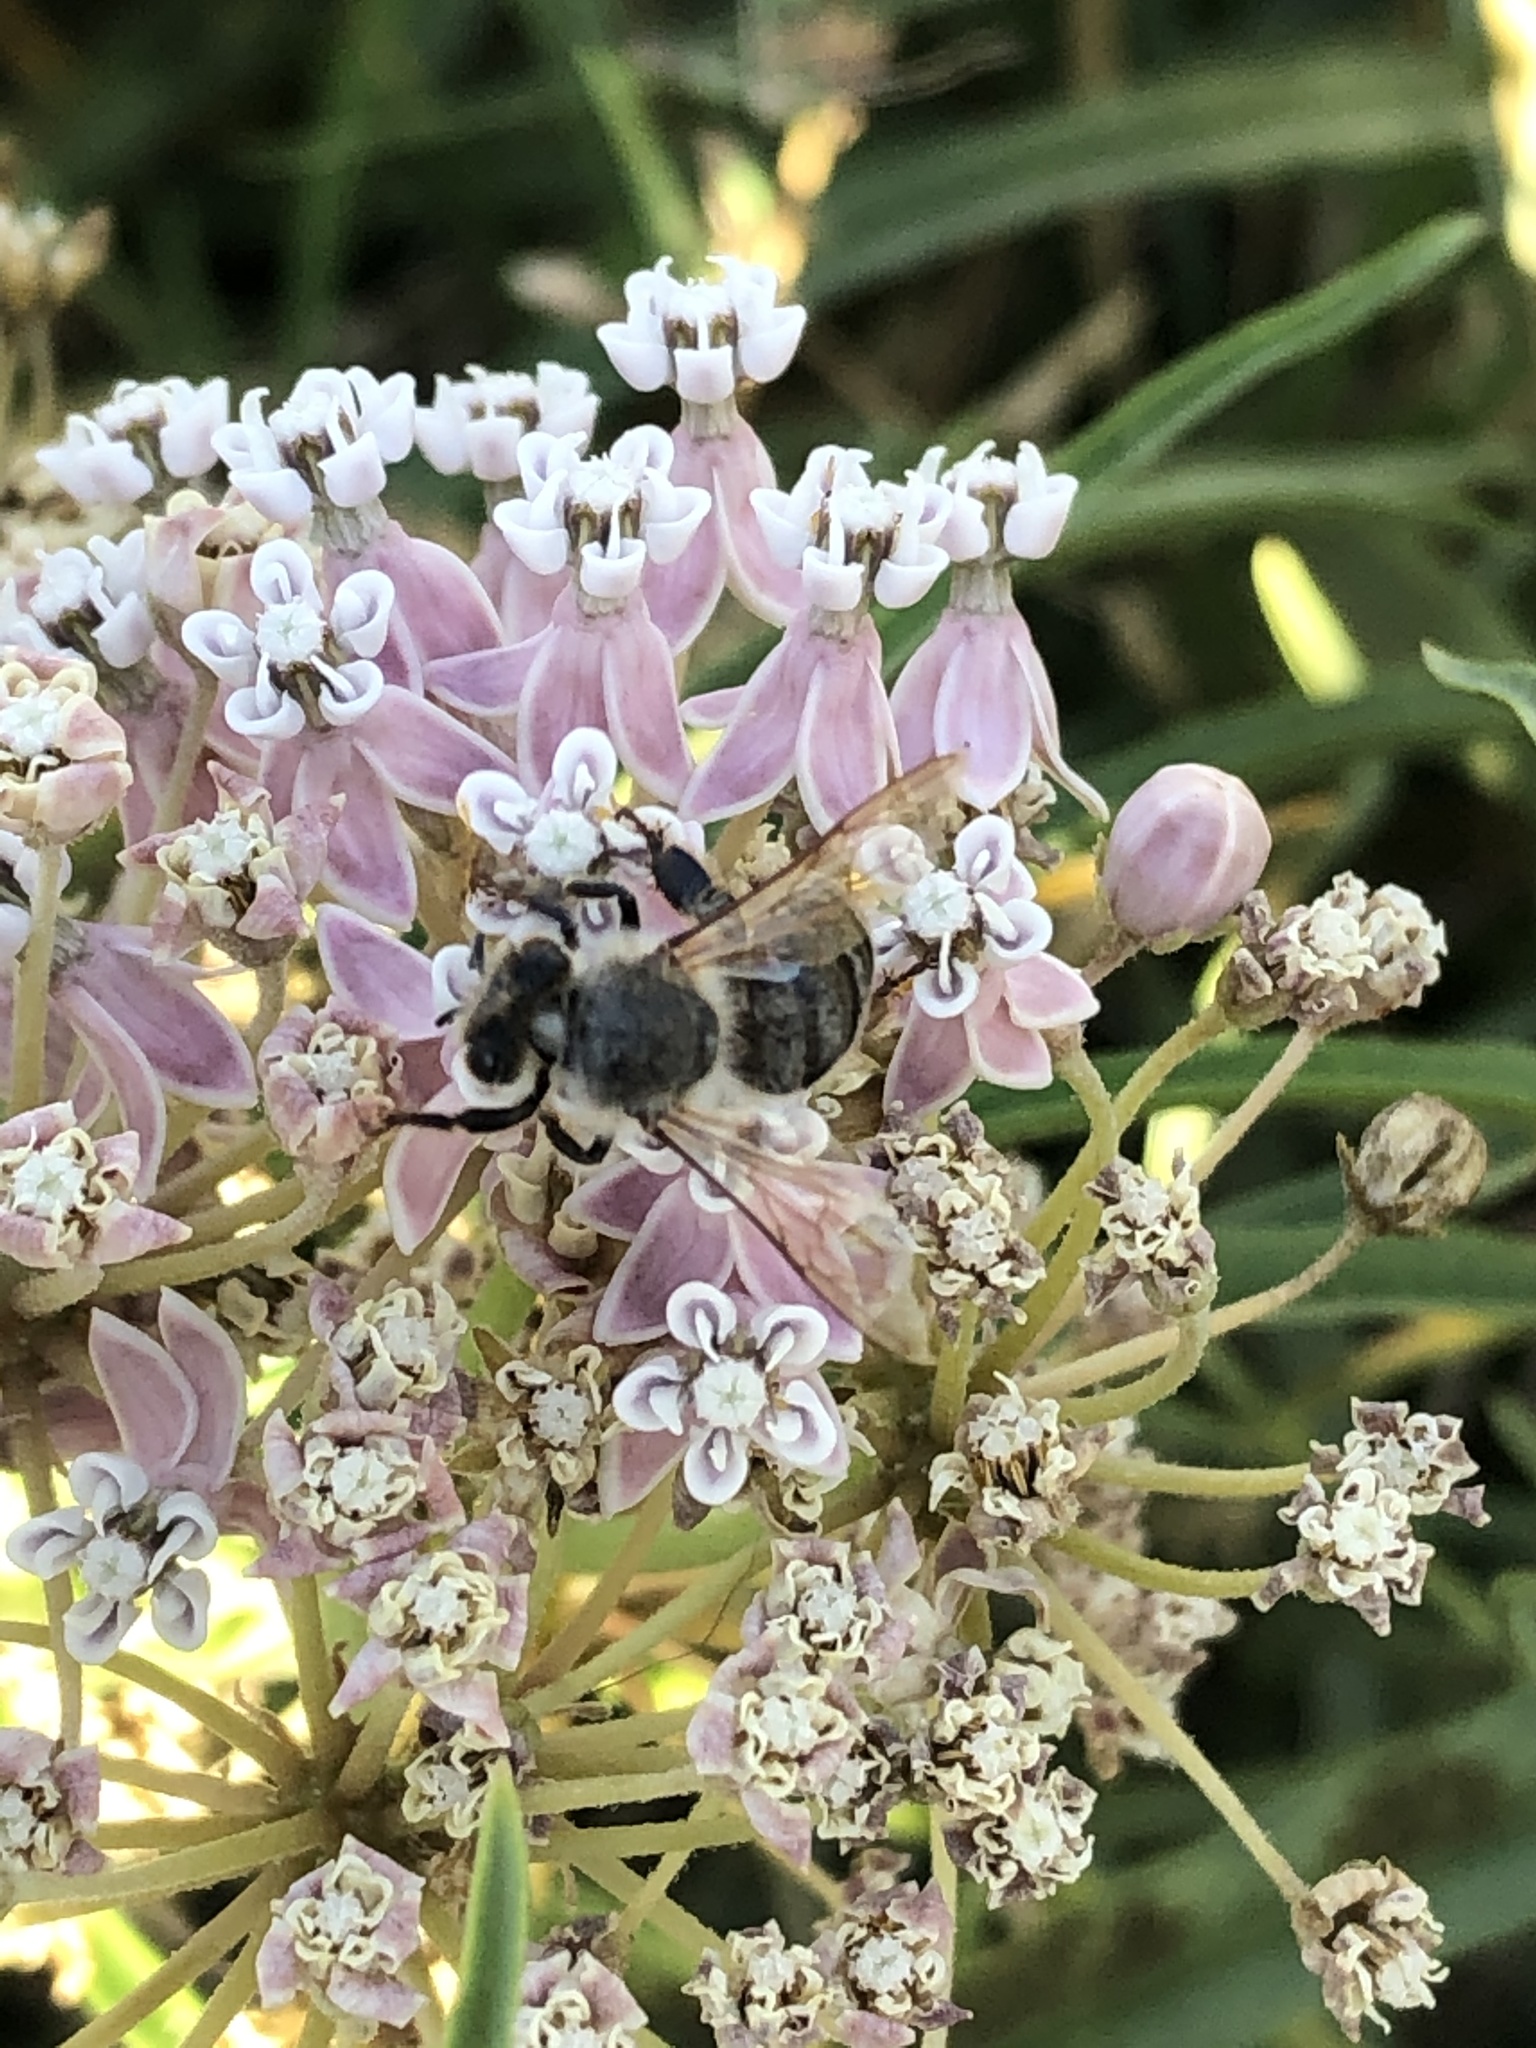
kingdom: Animalia
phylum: Arthropoda
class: Insecta
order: Hymenoptera
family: Apidae
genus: Apis
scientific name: Apis mellifera
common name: Honey bee
